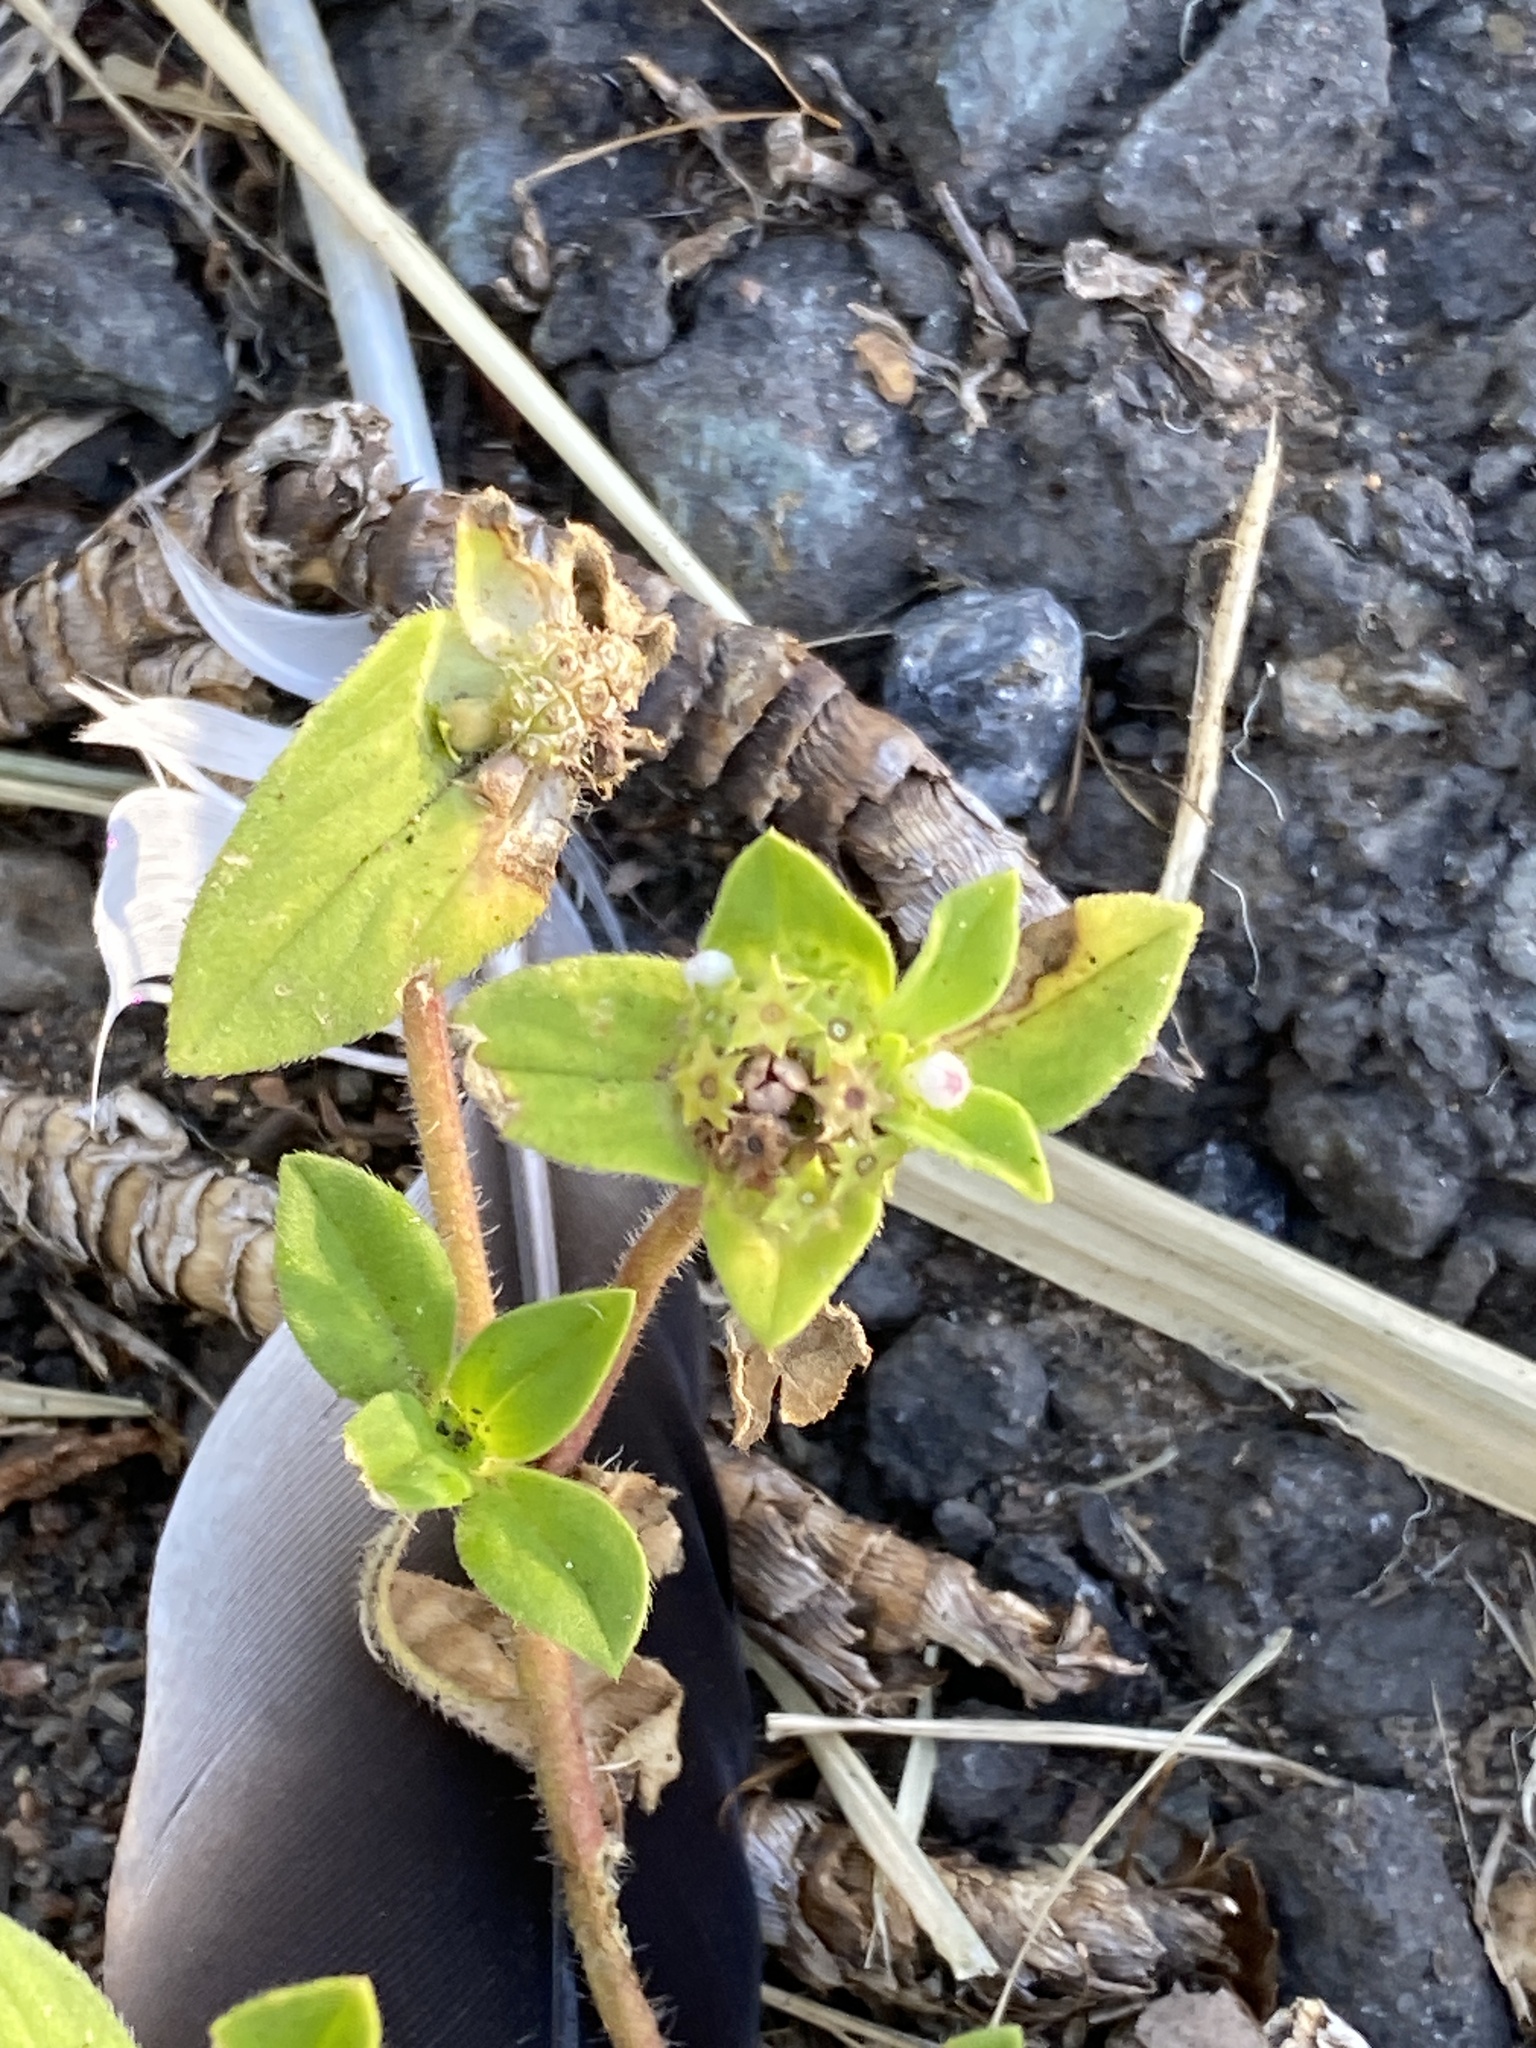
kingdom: Plantae
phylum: Tracheophyta
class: Magnoliopsida
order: Gentianales
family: Rubiaceae
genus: Richardia
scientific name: Richardia brasiliensis
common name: Tropical mexican clover
